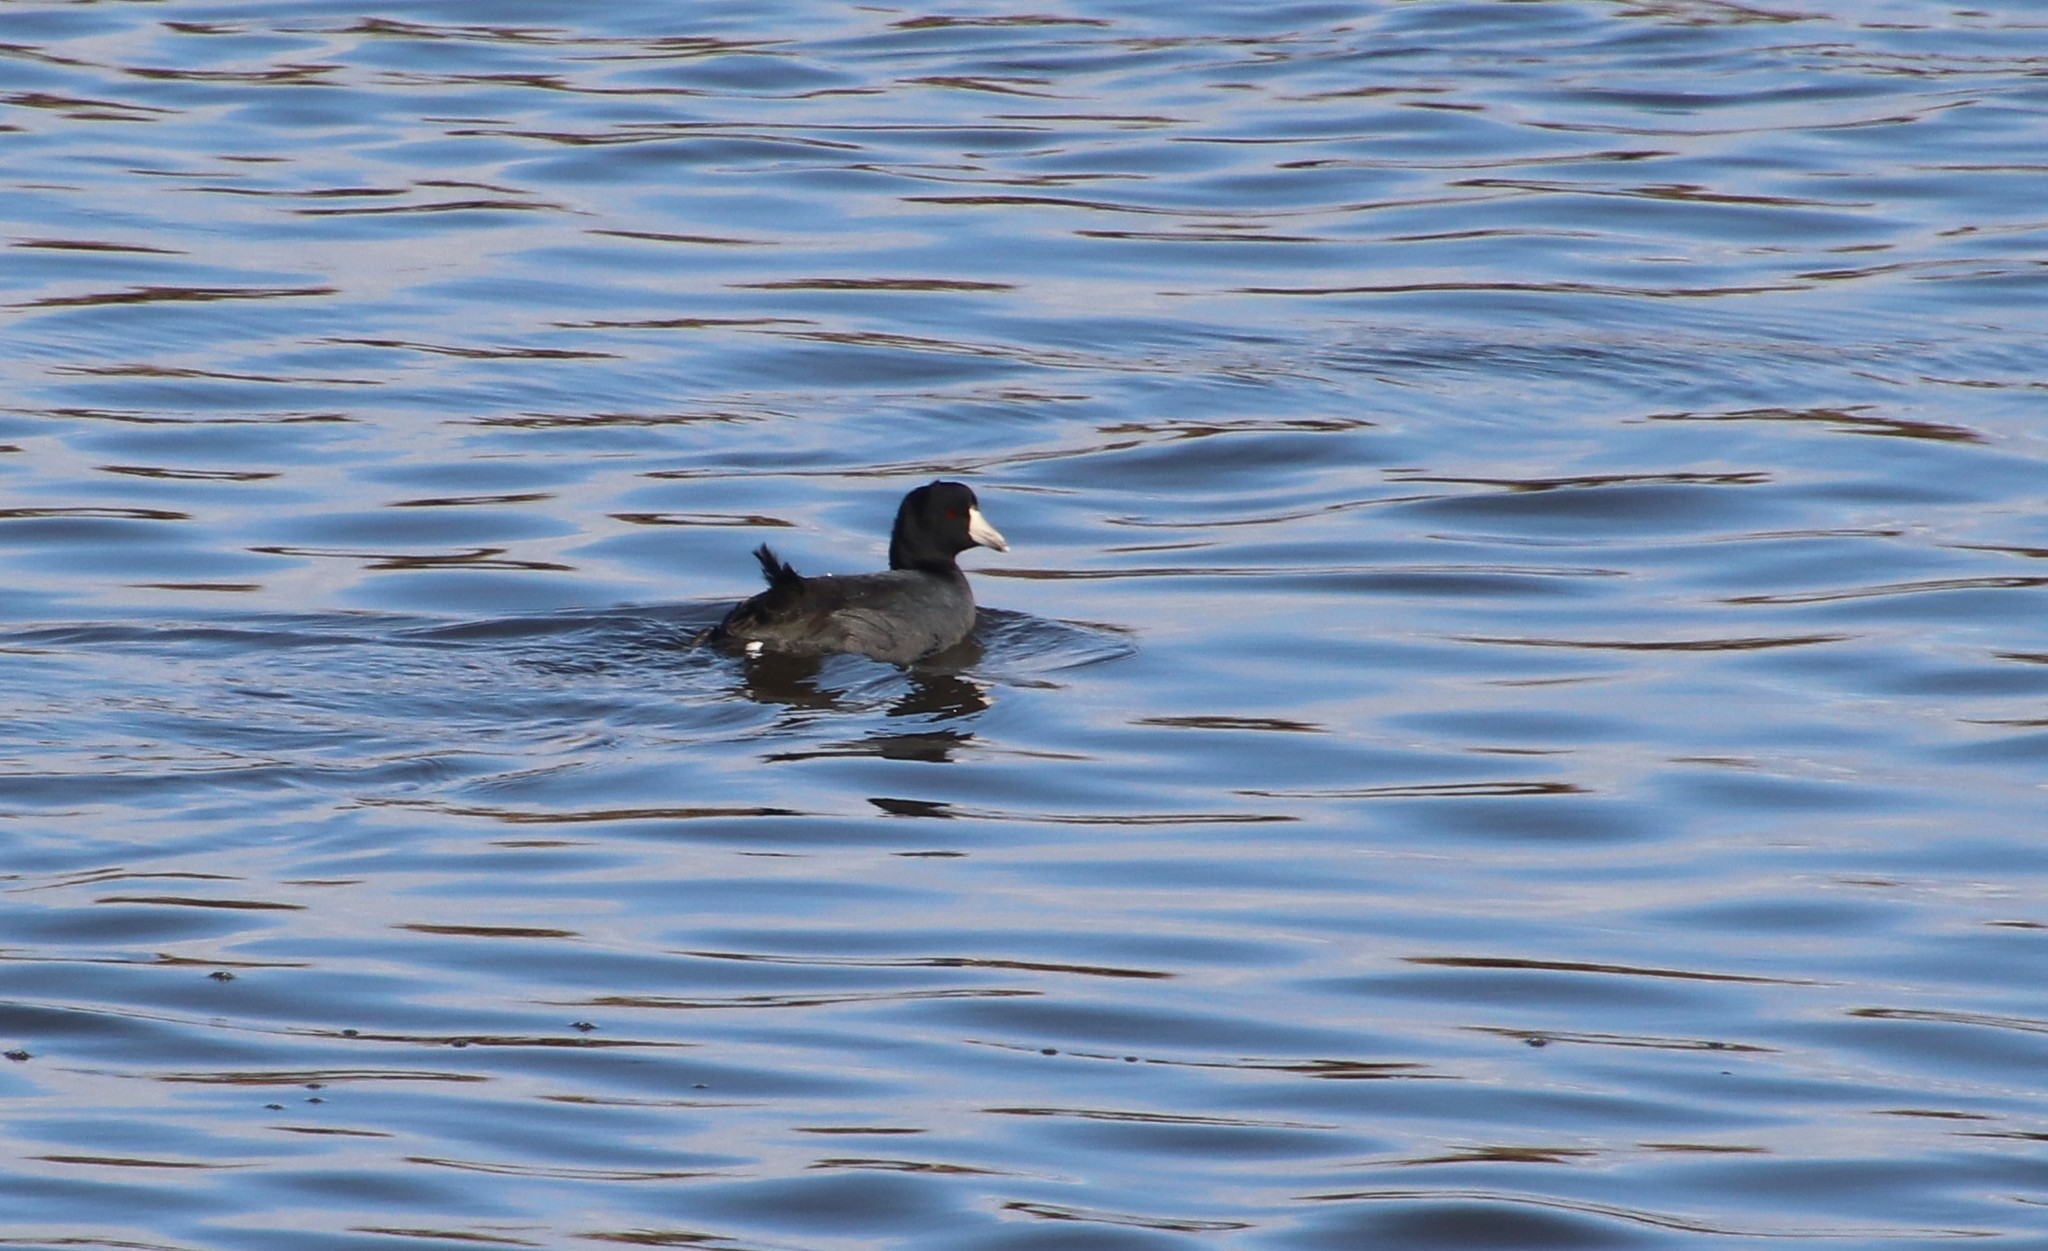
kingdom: Animalia
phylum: Chordata
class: Aves
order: Gruiformes
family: Rallidae
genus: Fulica
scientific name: Fulica americana
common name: American coot
